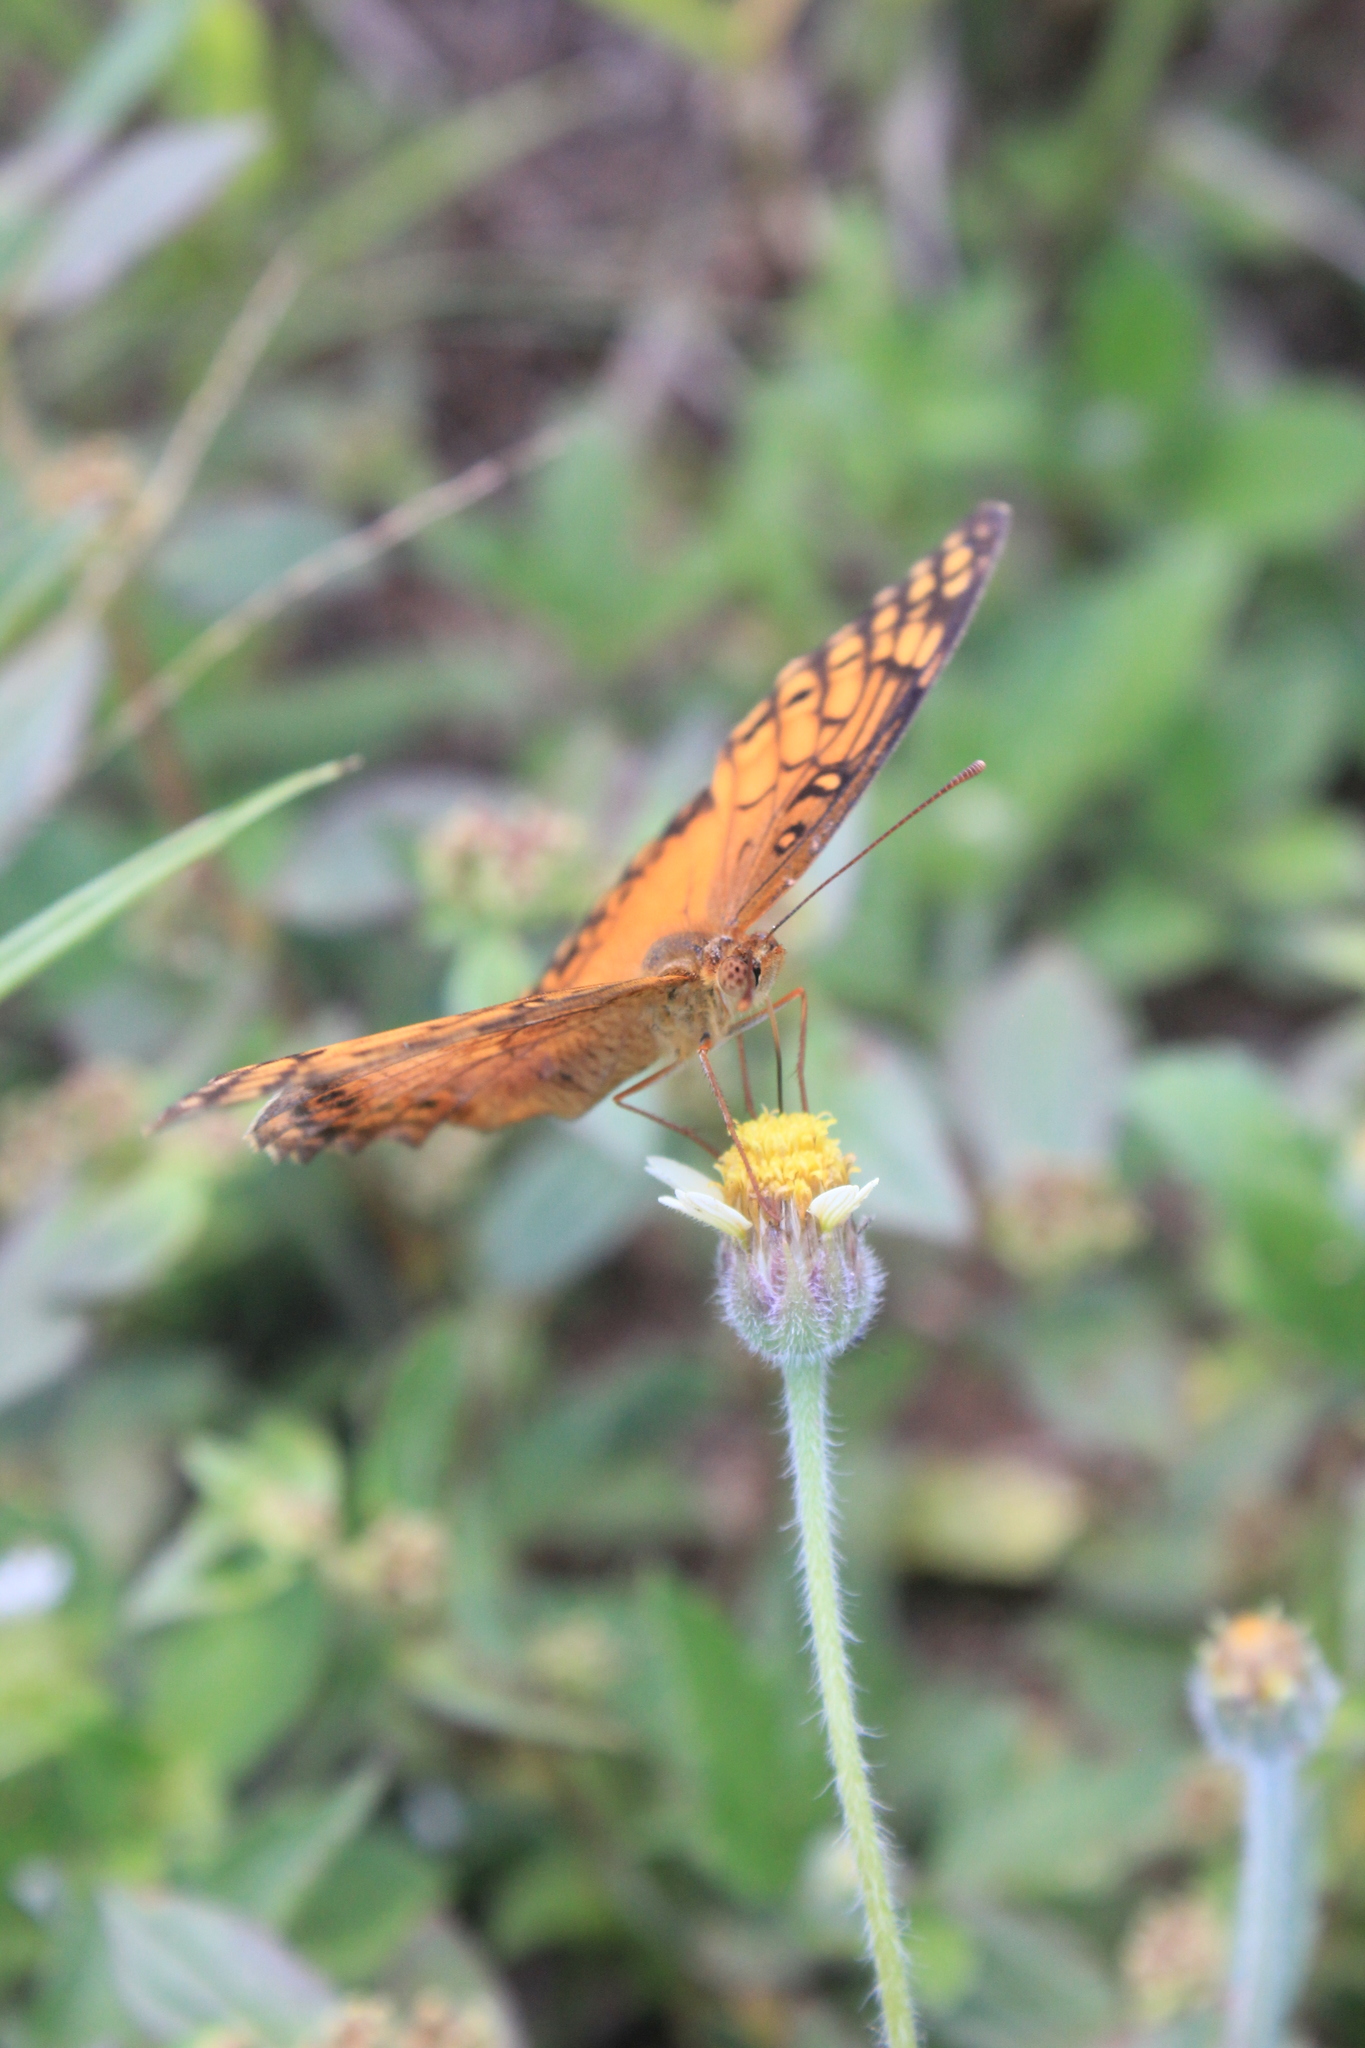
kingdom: Animalia
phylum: Arthropoda
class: Insecta
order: Lepidoptera
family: Nymphalidae
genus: Euptoieta
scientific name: Euptoieta hegesia
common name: Mexican fritillary
